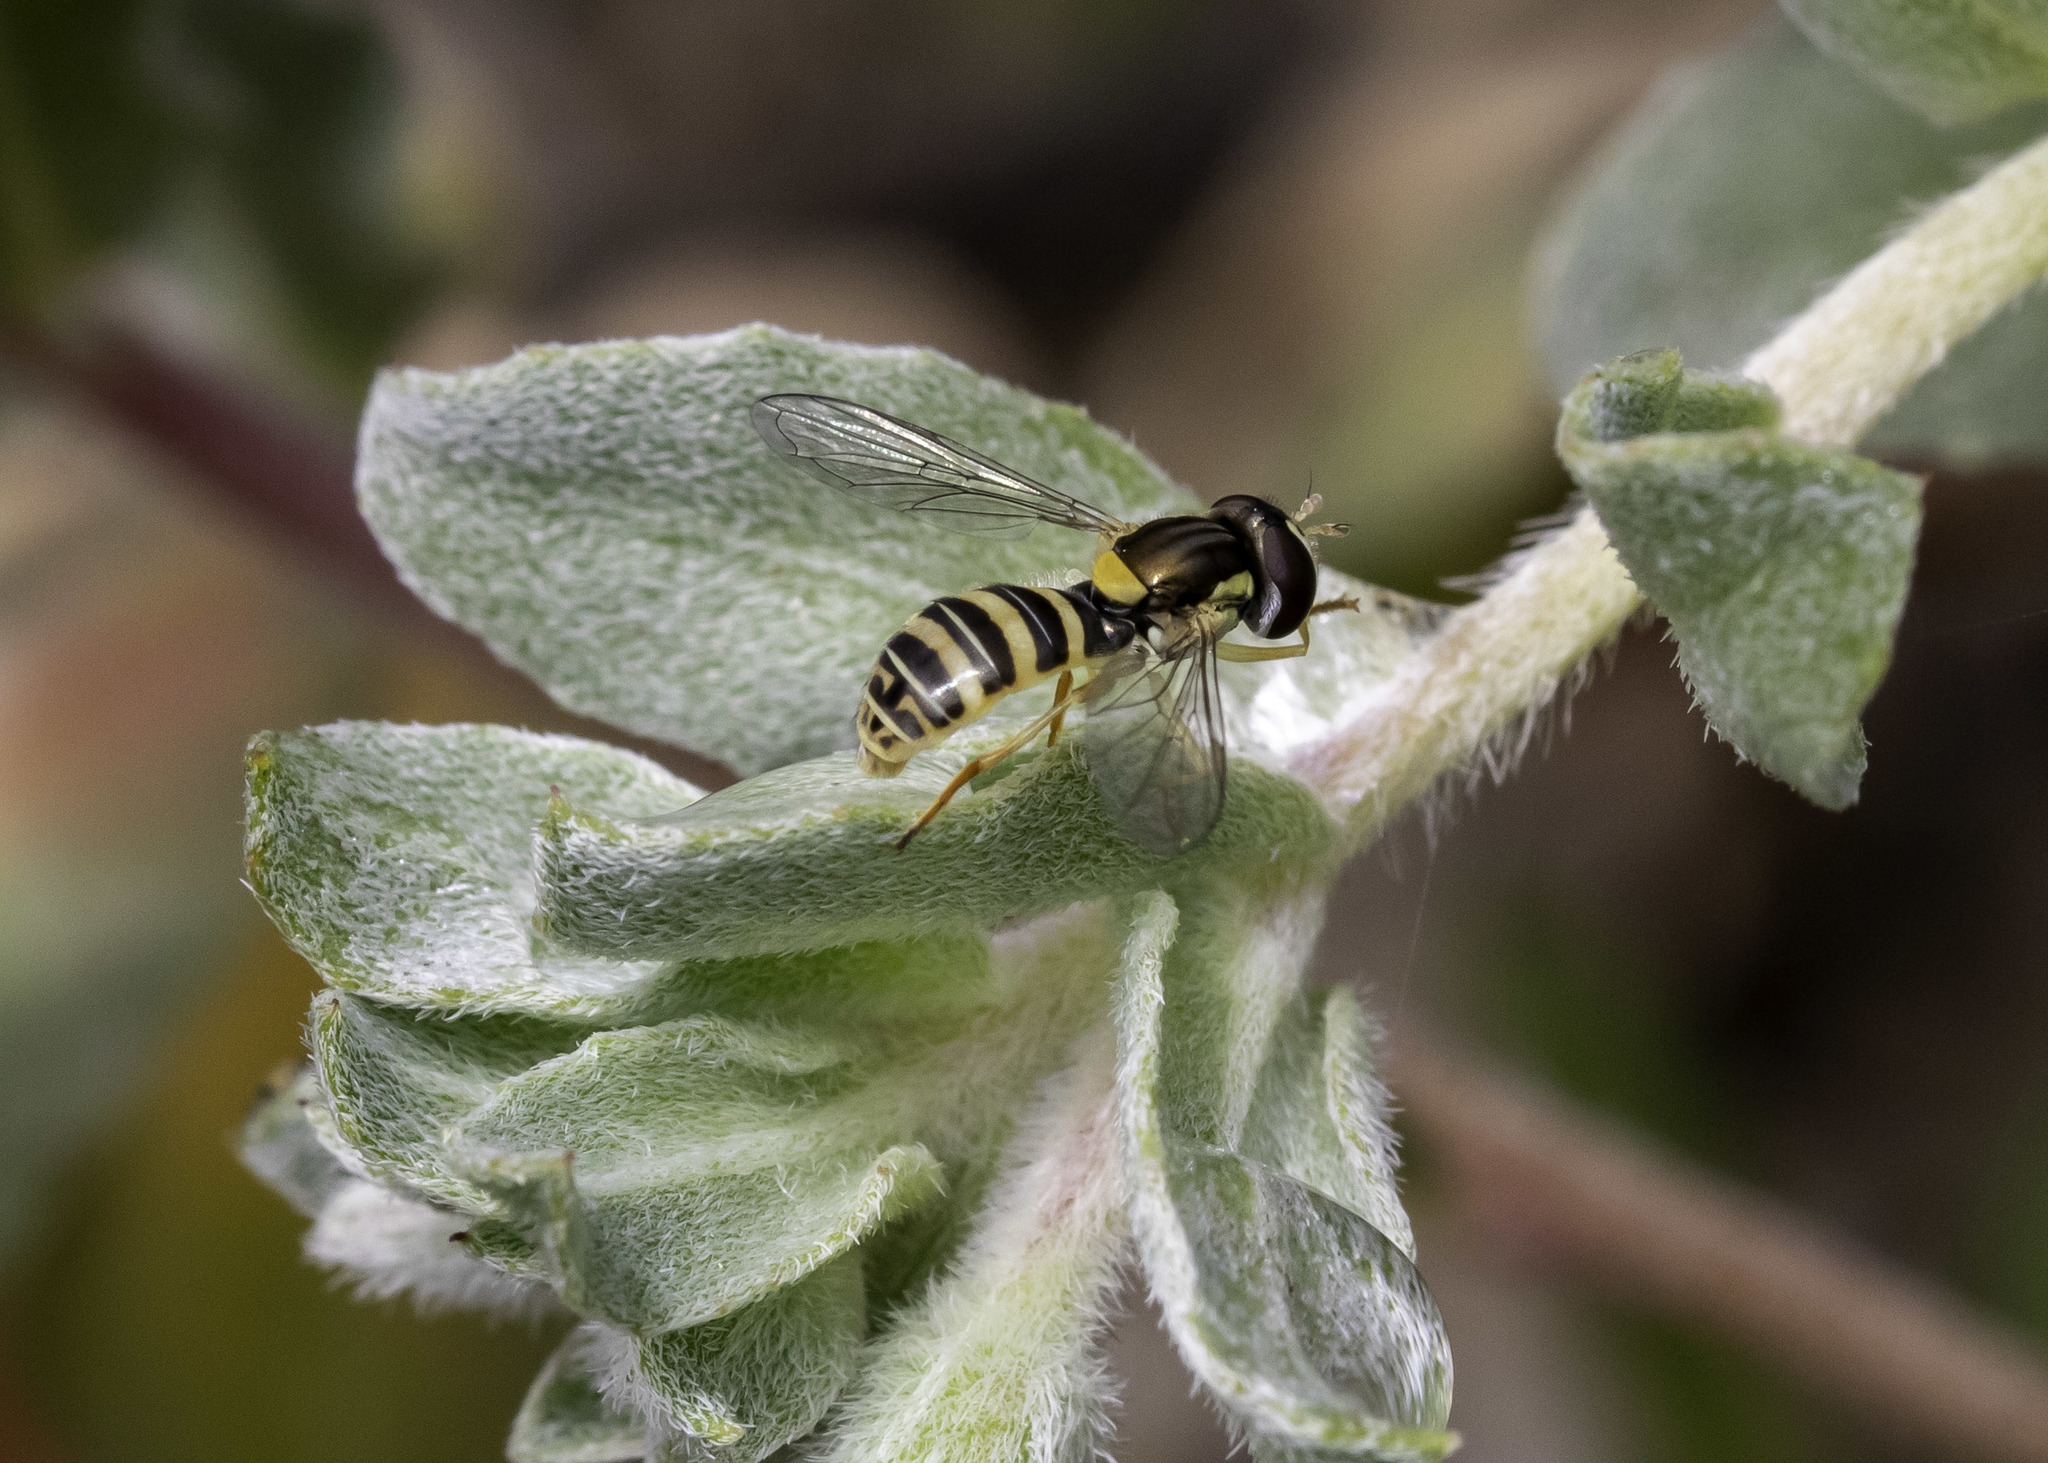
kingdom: Animalia
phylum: Arthropoda
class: Insecta
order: Diptera
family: Syrphidae
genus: Sphaerophoria
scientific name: Sphaerophoria sulphuripes
